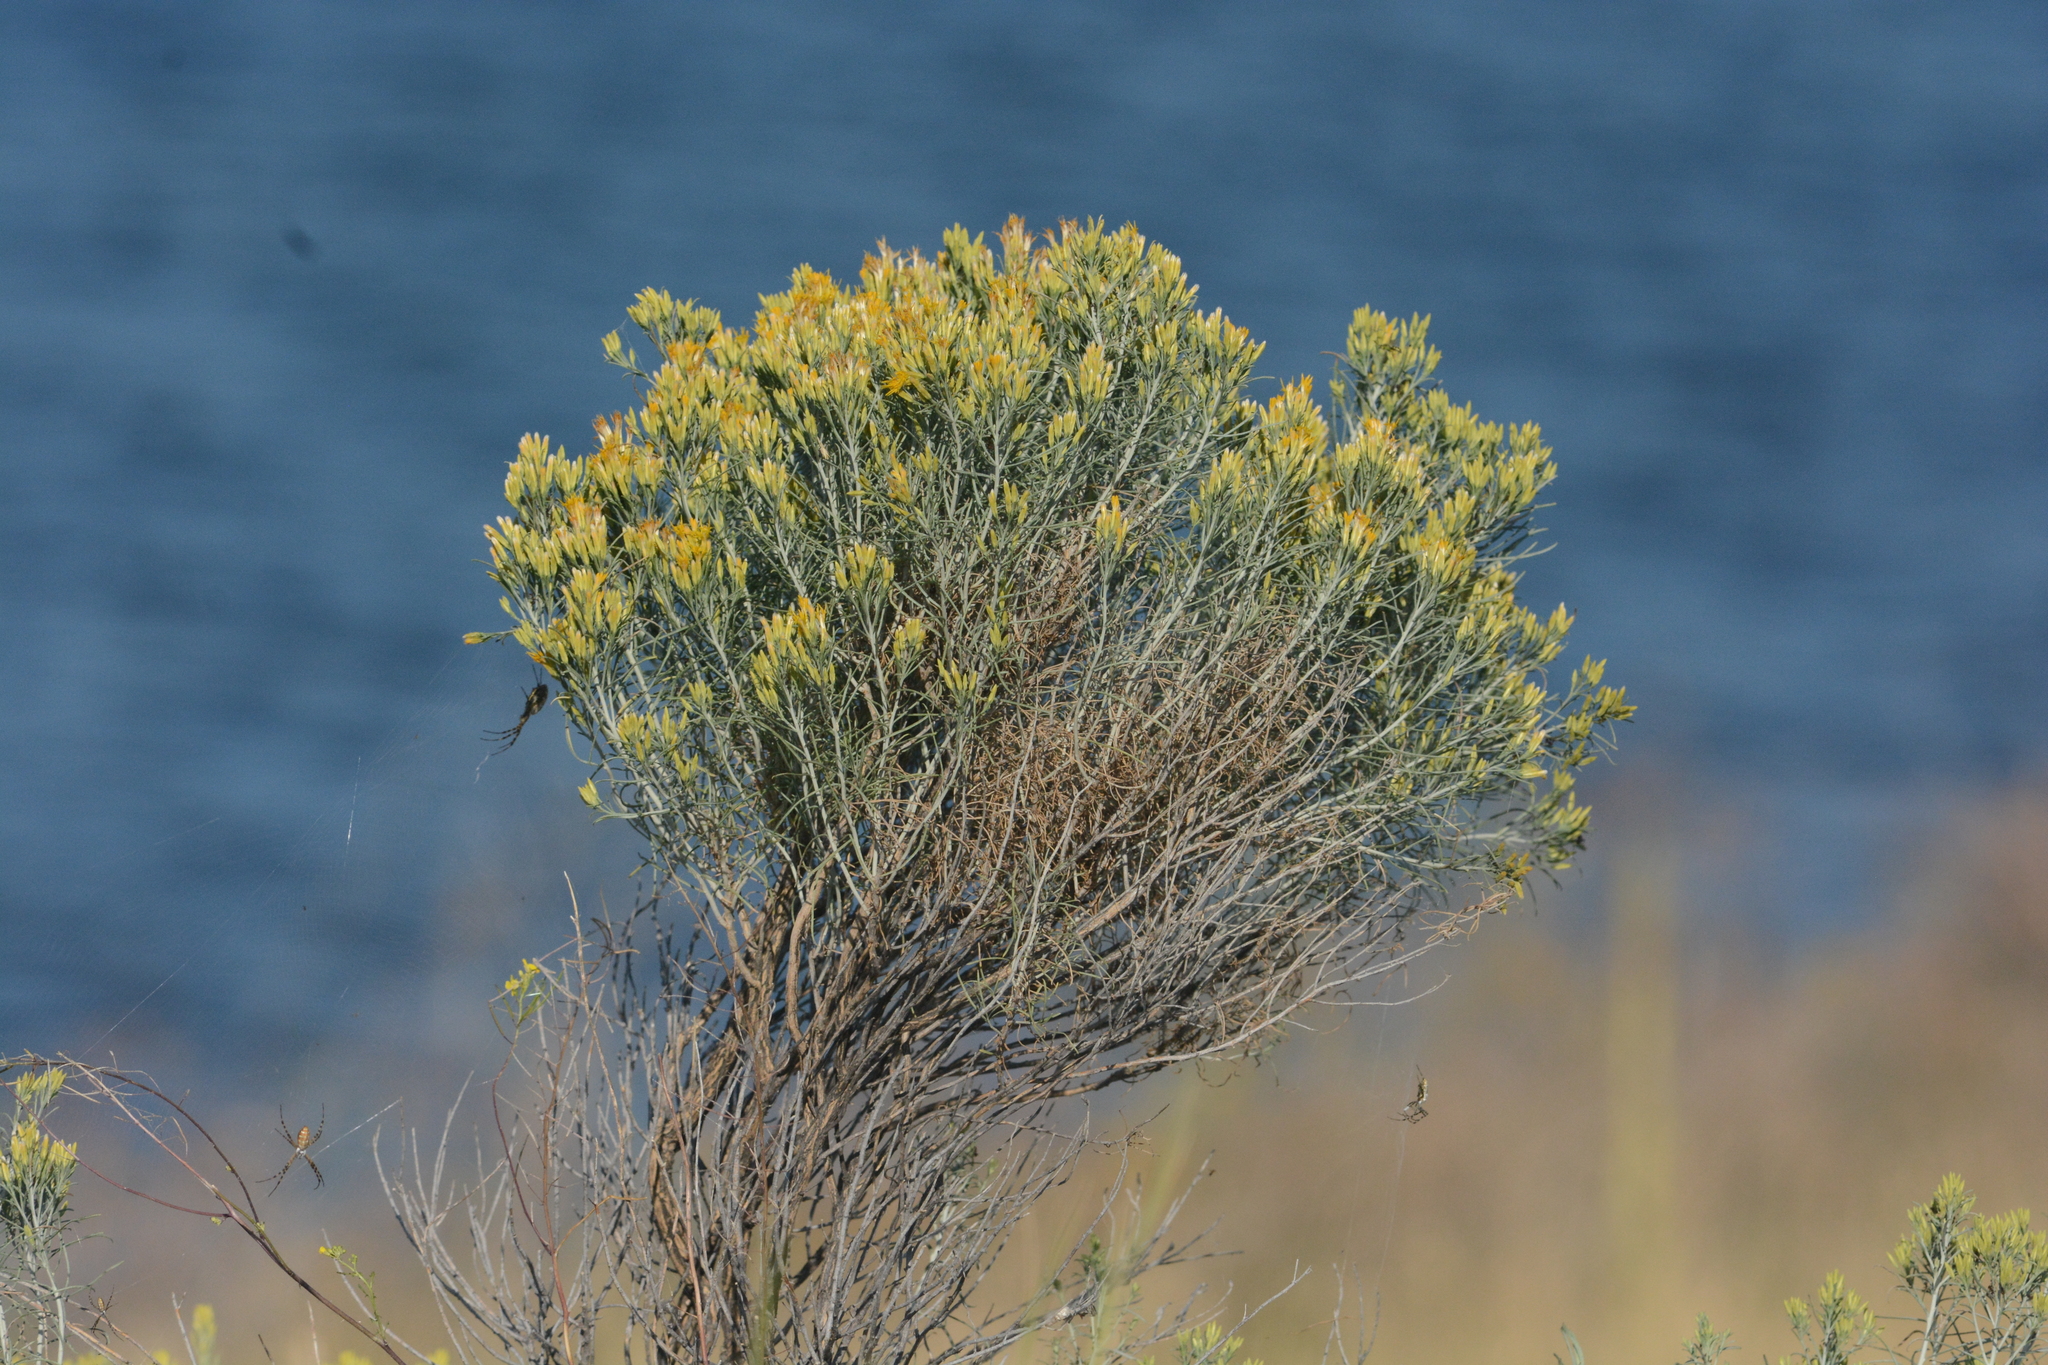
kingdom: Plantae
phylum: Tracheophyta
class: Magnoliopsida
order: Asterales
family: Asteraceae
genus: Ericameria
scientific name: Ericameria nauseosa
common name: Rubber rabbitbrush
